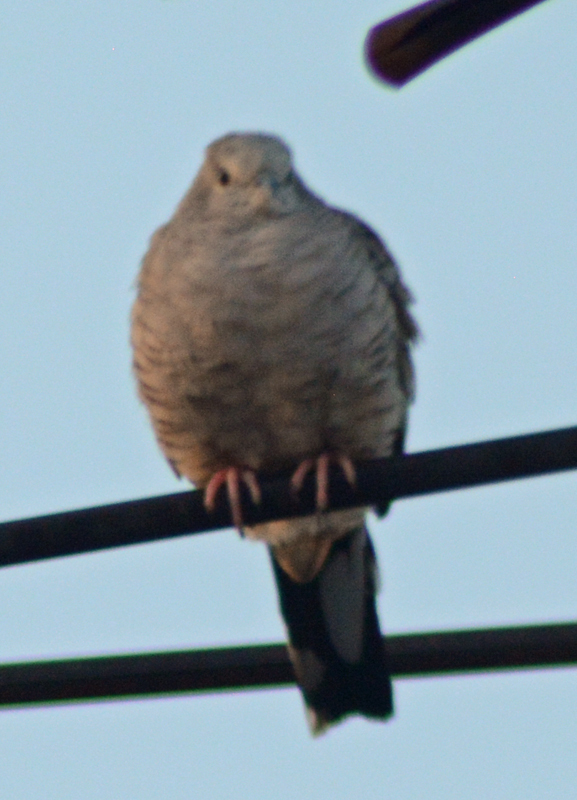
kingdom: Animalia
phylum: Chordata
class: Aves
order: Columbiformes
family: Columbidae
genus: Columbina
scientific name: Columbina inca
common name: Inca dove
